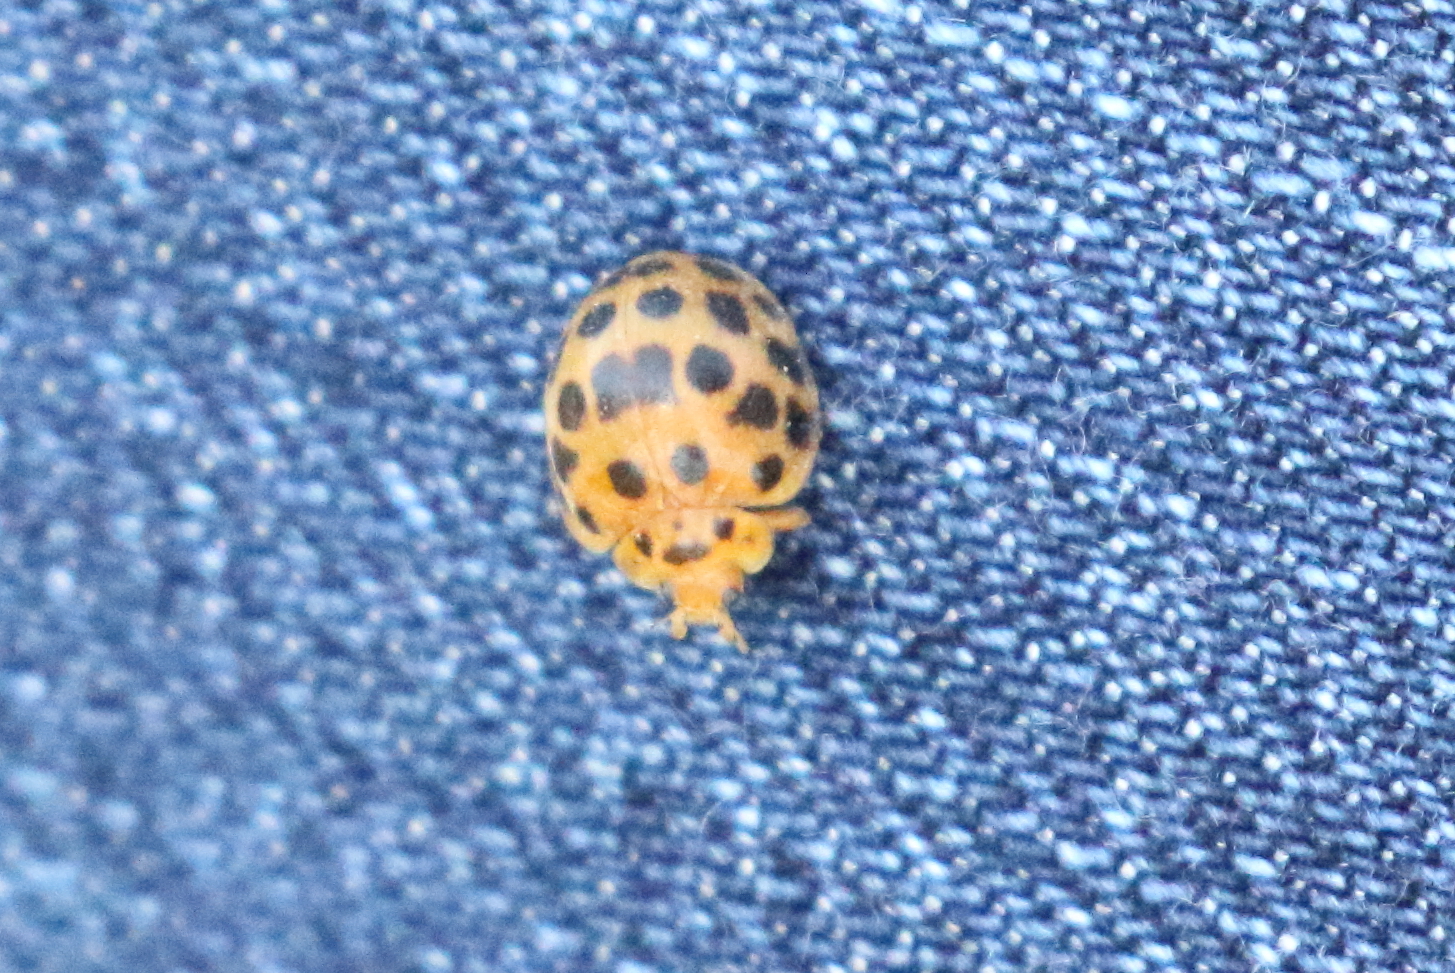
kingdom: Animalia
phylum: Arthropoda
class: Insecta
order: Coleoptera
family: Coccinellidae
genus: Henosepilachna
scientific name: Henosepilachna vigintioctopunctata
